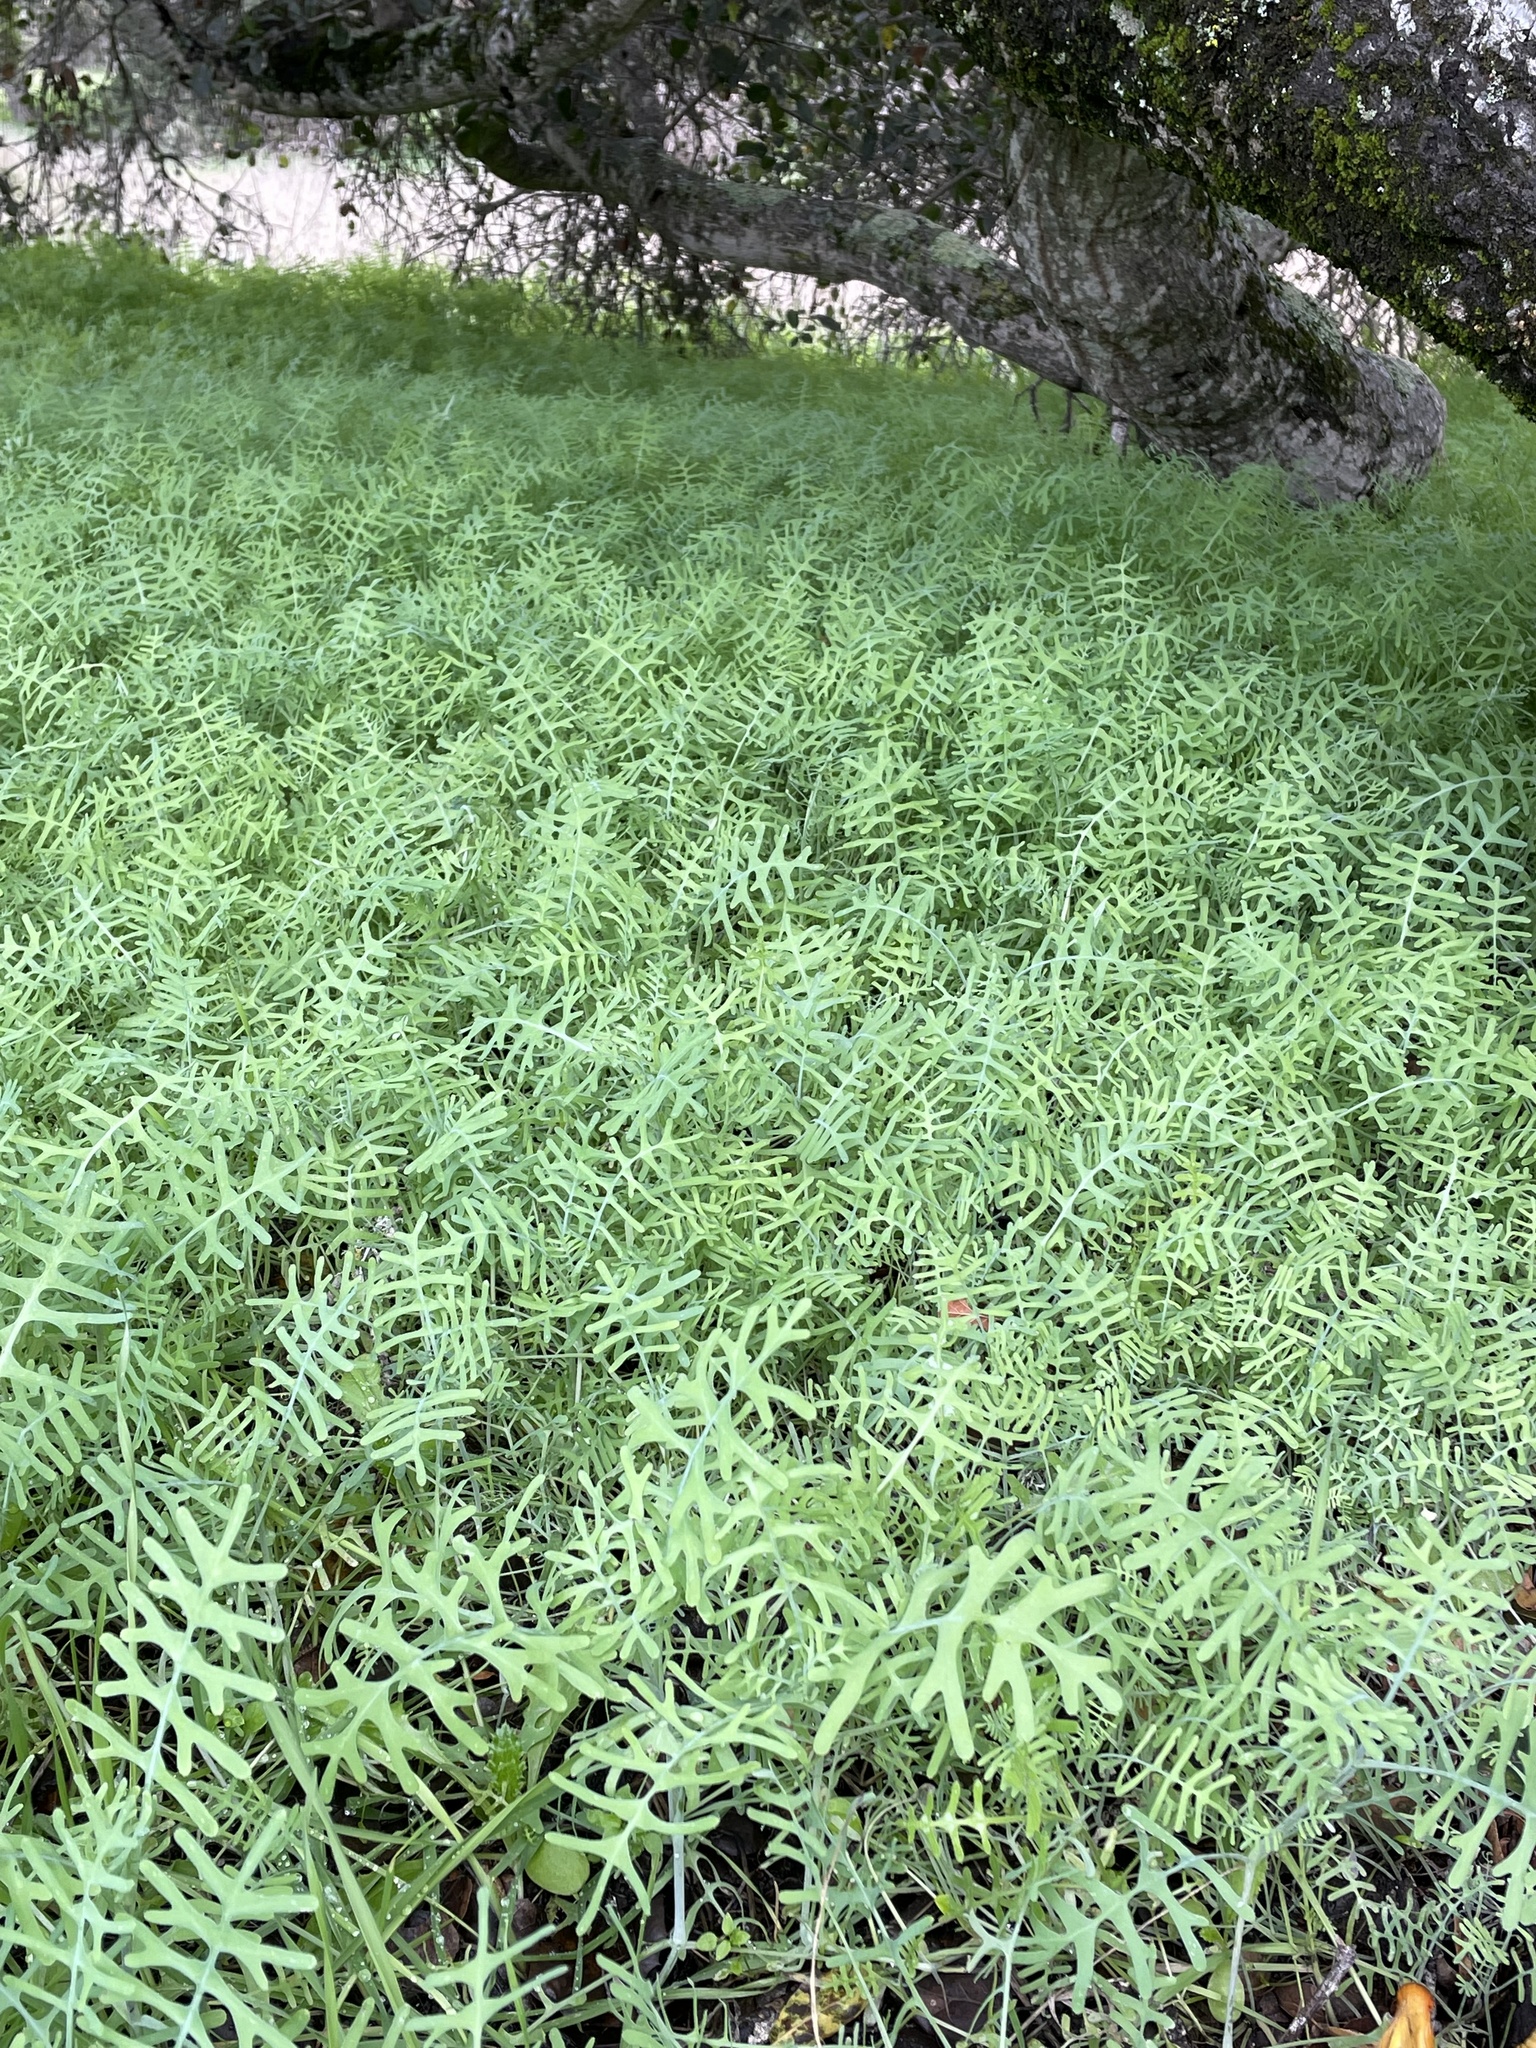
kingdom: Plantae
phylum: Tracheophyta
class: Magnoliopsida
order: Boraginales
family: Hydrophyllaceae
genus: Pholistoma
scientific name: Pholistoma membranaceum
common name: White fiesta-flower
